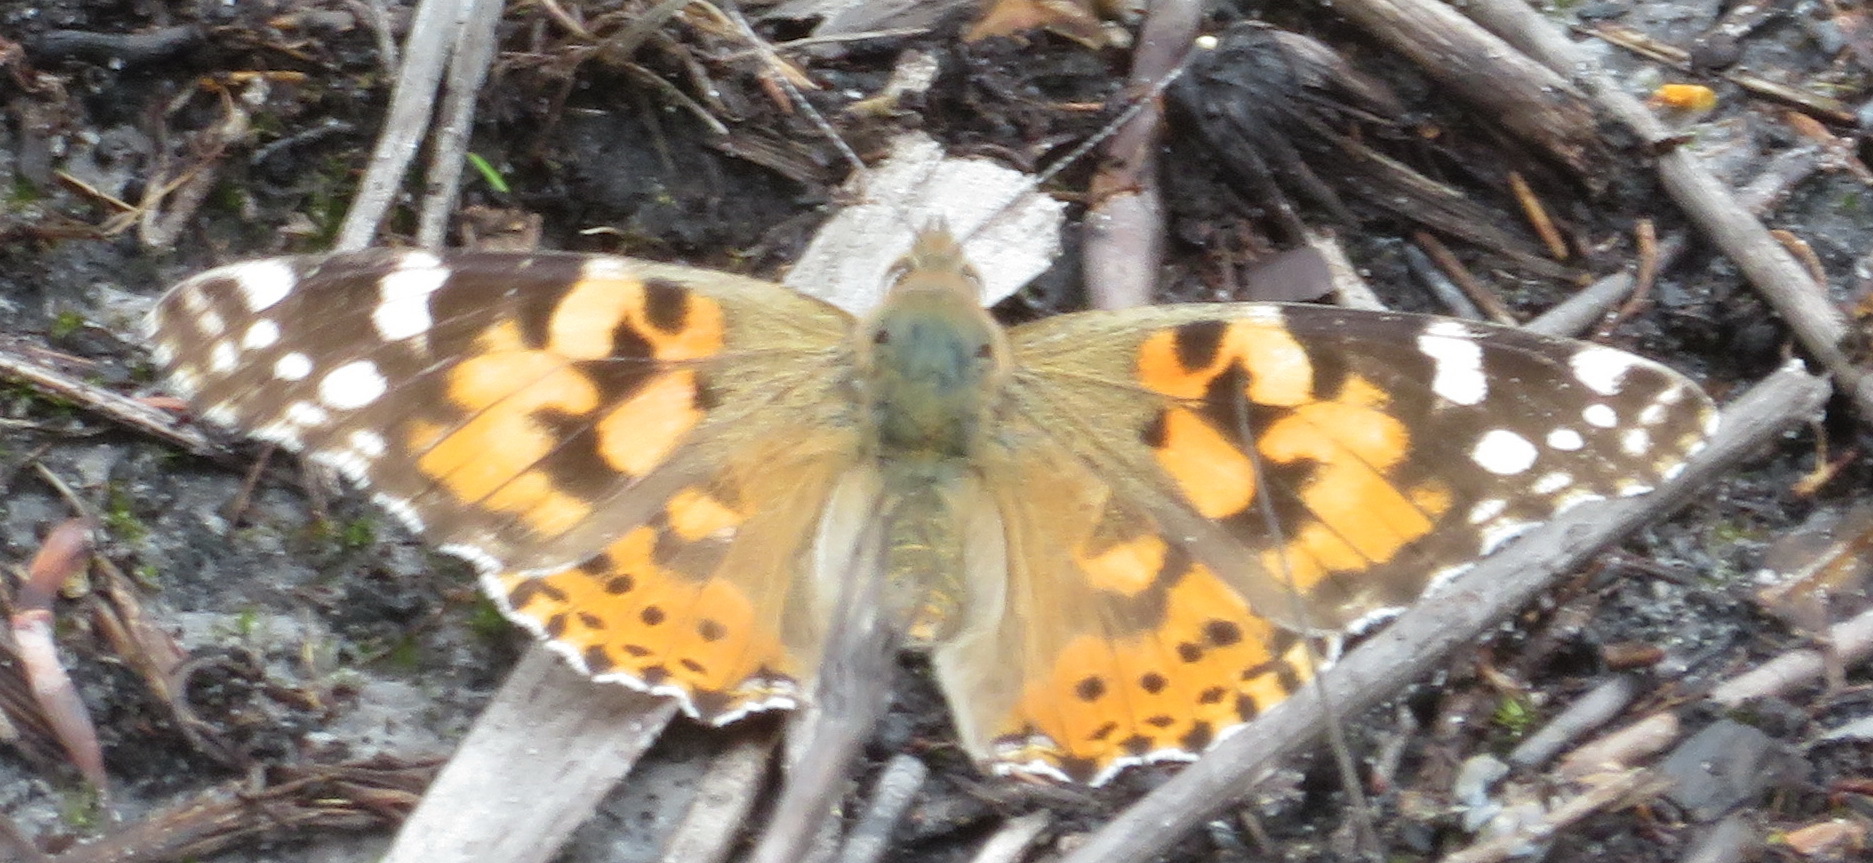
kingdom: Animalia
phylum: Arthropoda
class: Insecta
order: Lepidoptera
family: Nymphalidae
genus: Vanessa
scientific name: Vanessa cardui
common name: Painted lady
